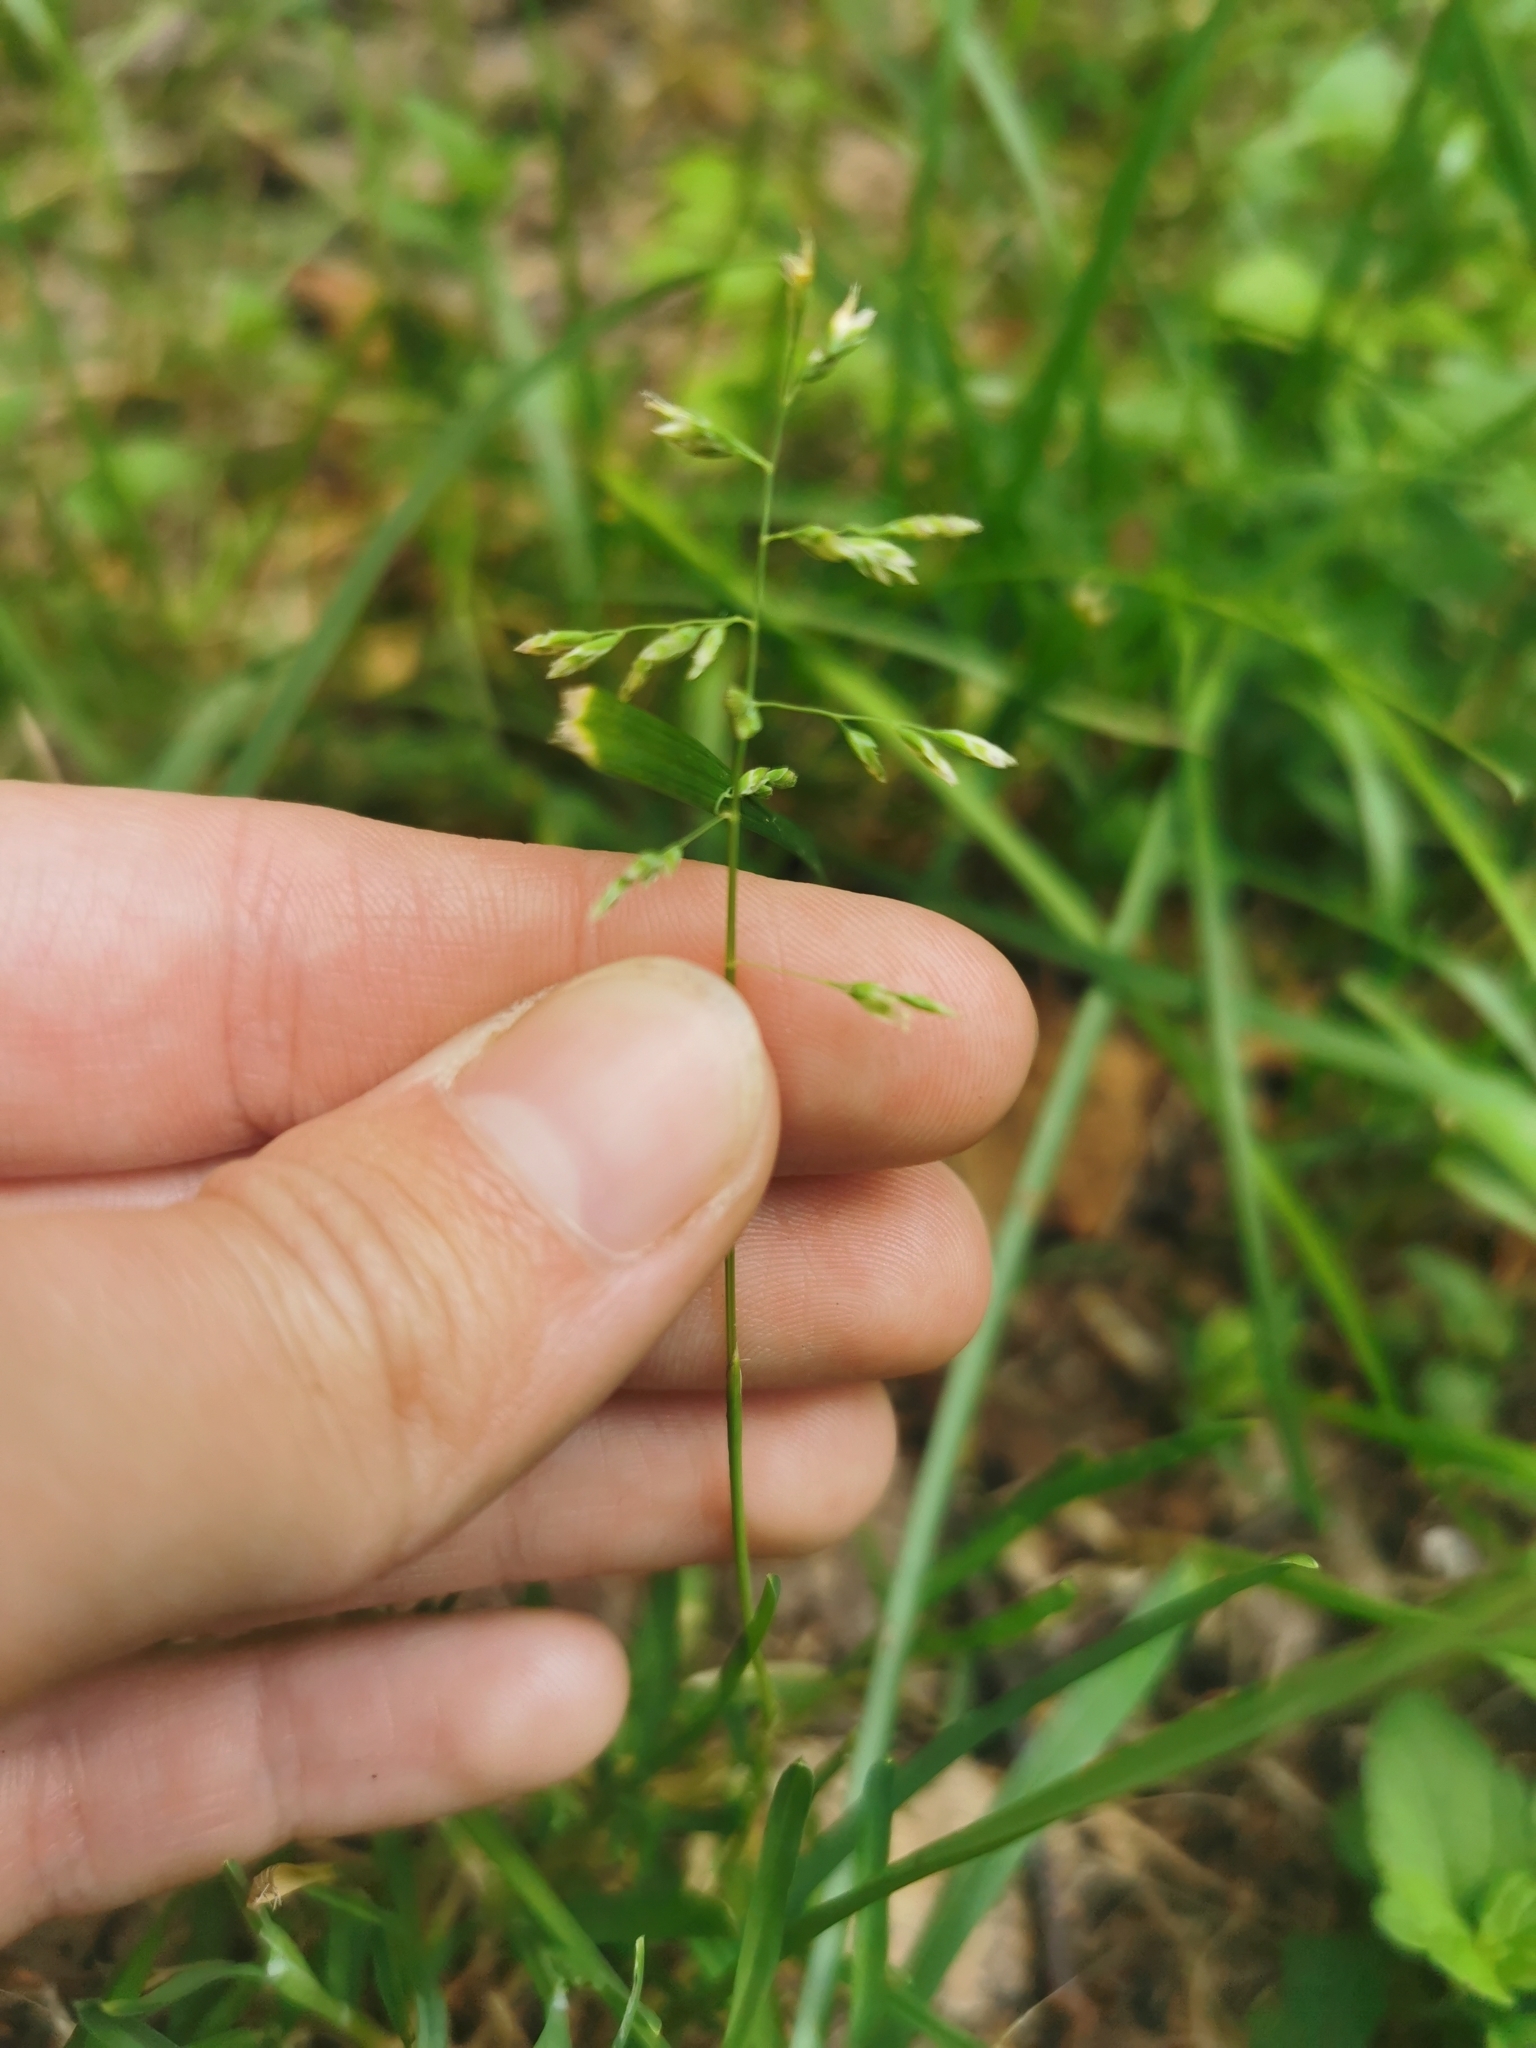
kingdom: Plantae
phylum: Tracheophyta
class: Liliopsida
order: Poales
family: Poaceae
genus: Poa
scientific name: Poa annua
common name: Annual bluegrass
